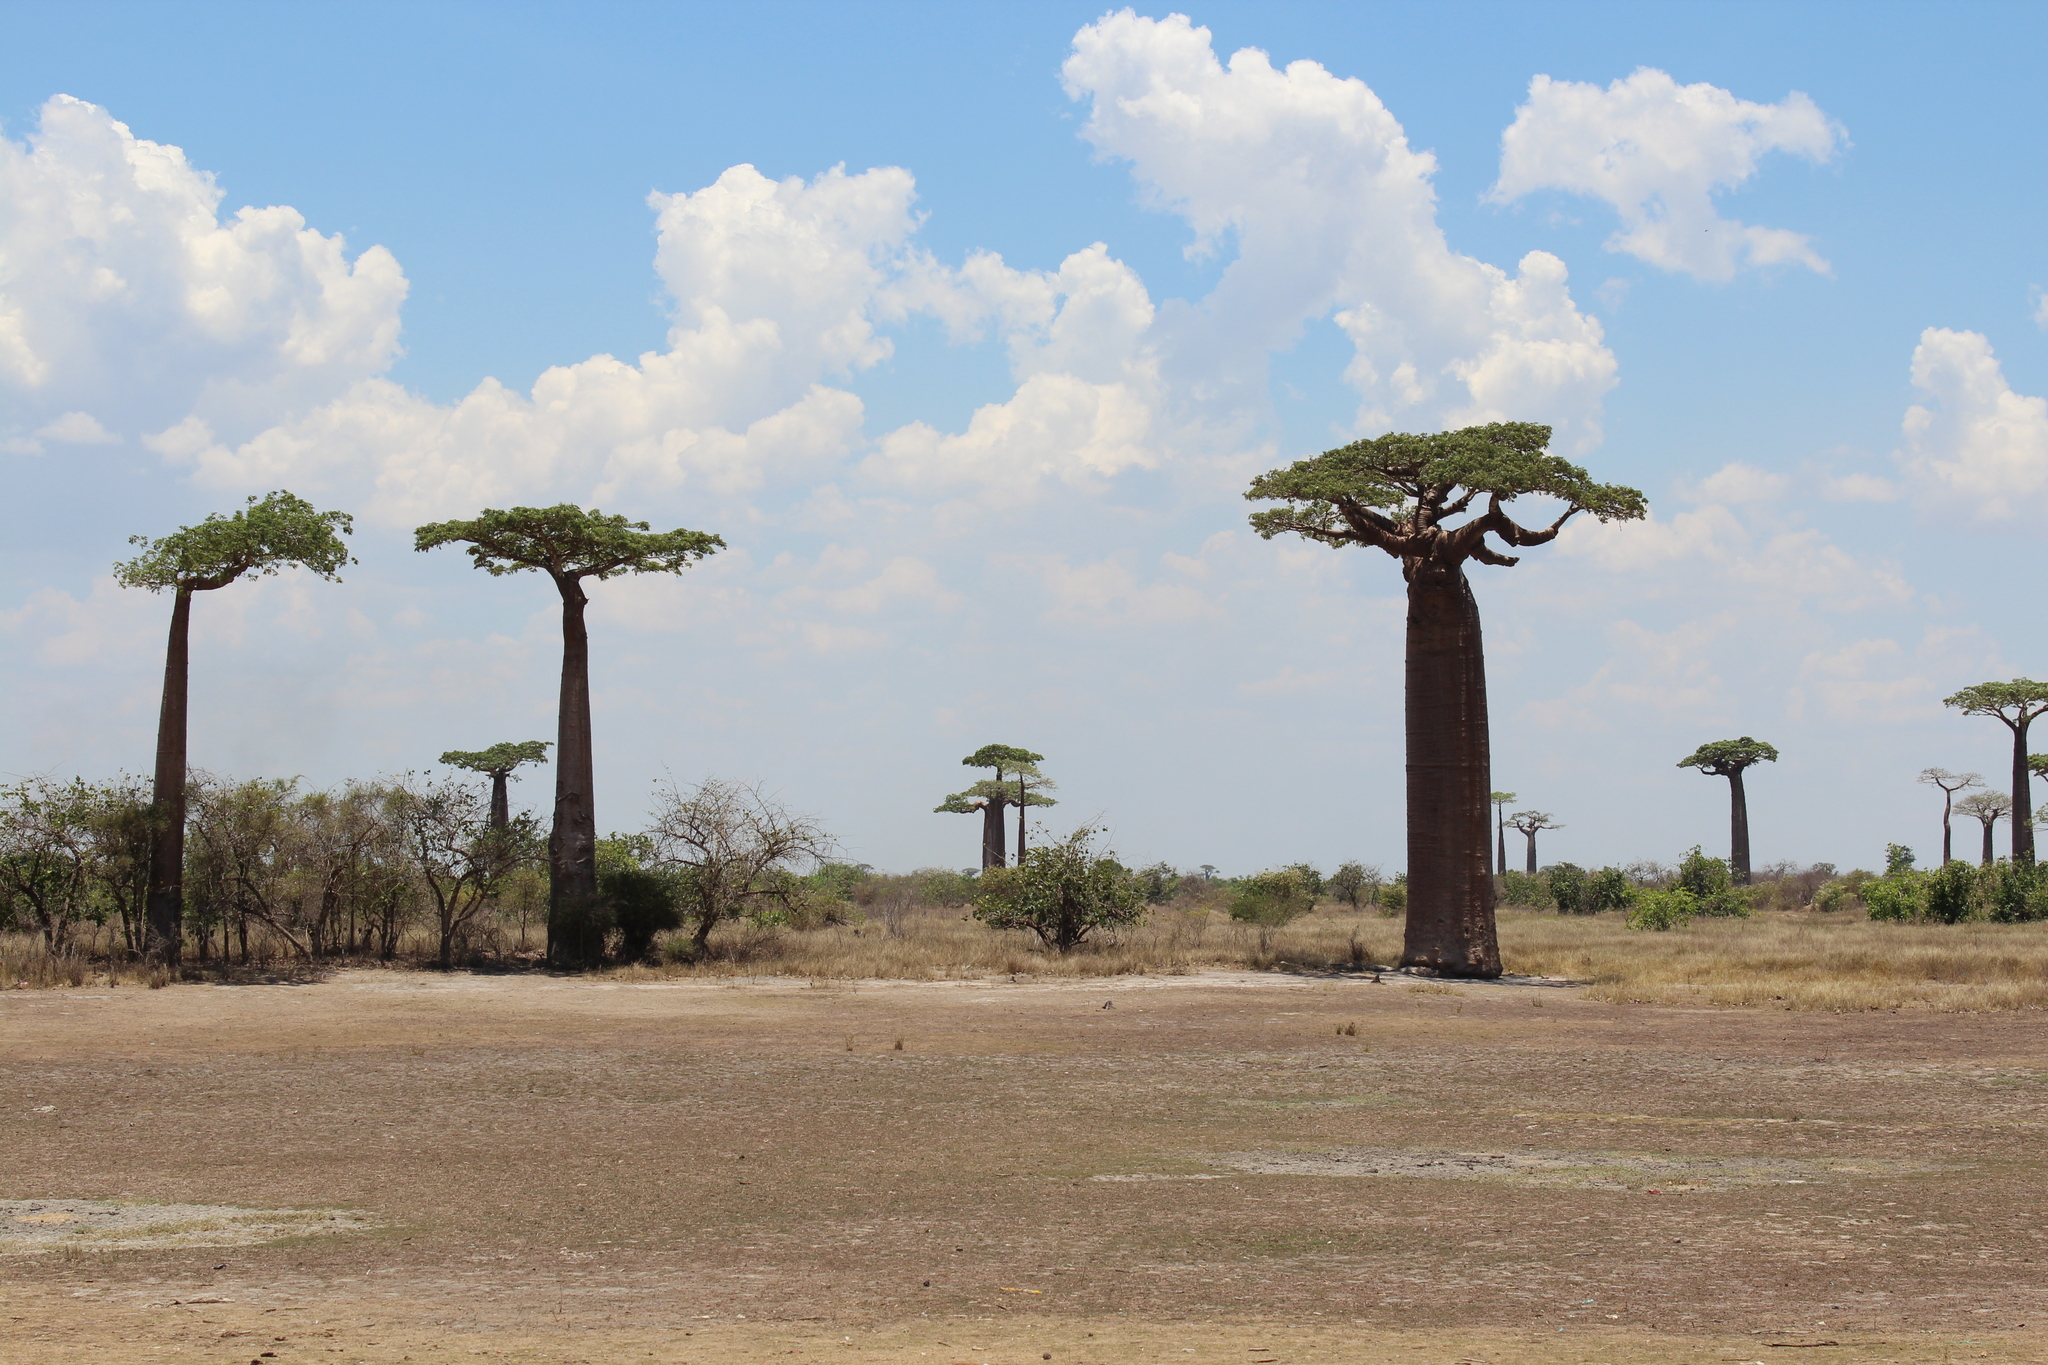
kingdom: Plantae
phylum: Tracheophyta
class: Magnoliopsida
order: Malvales
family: Malvaceae
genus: Adansonia
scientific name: Adansonia grandidieri
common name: Grandidier's baobab
